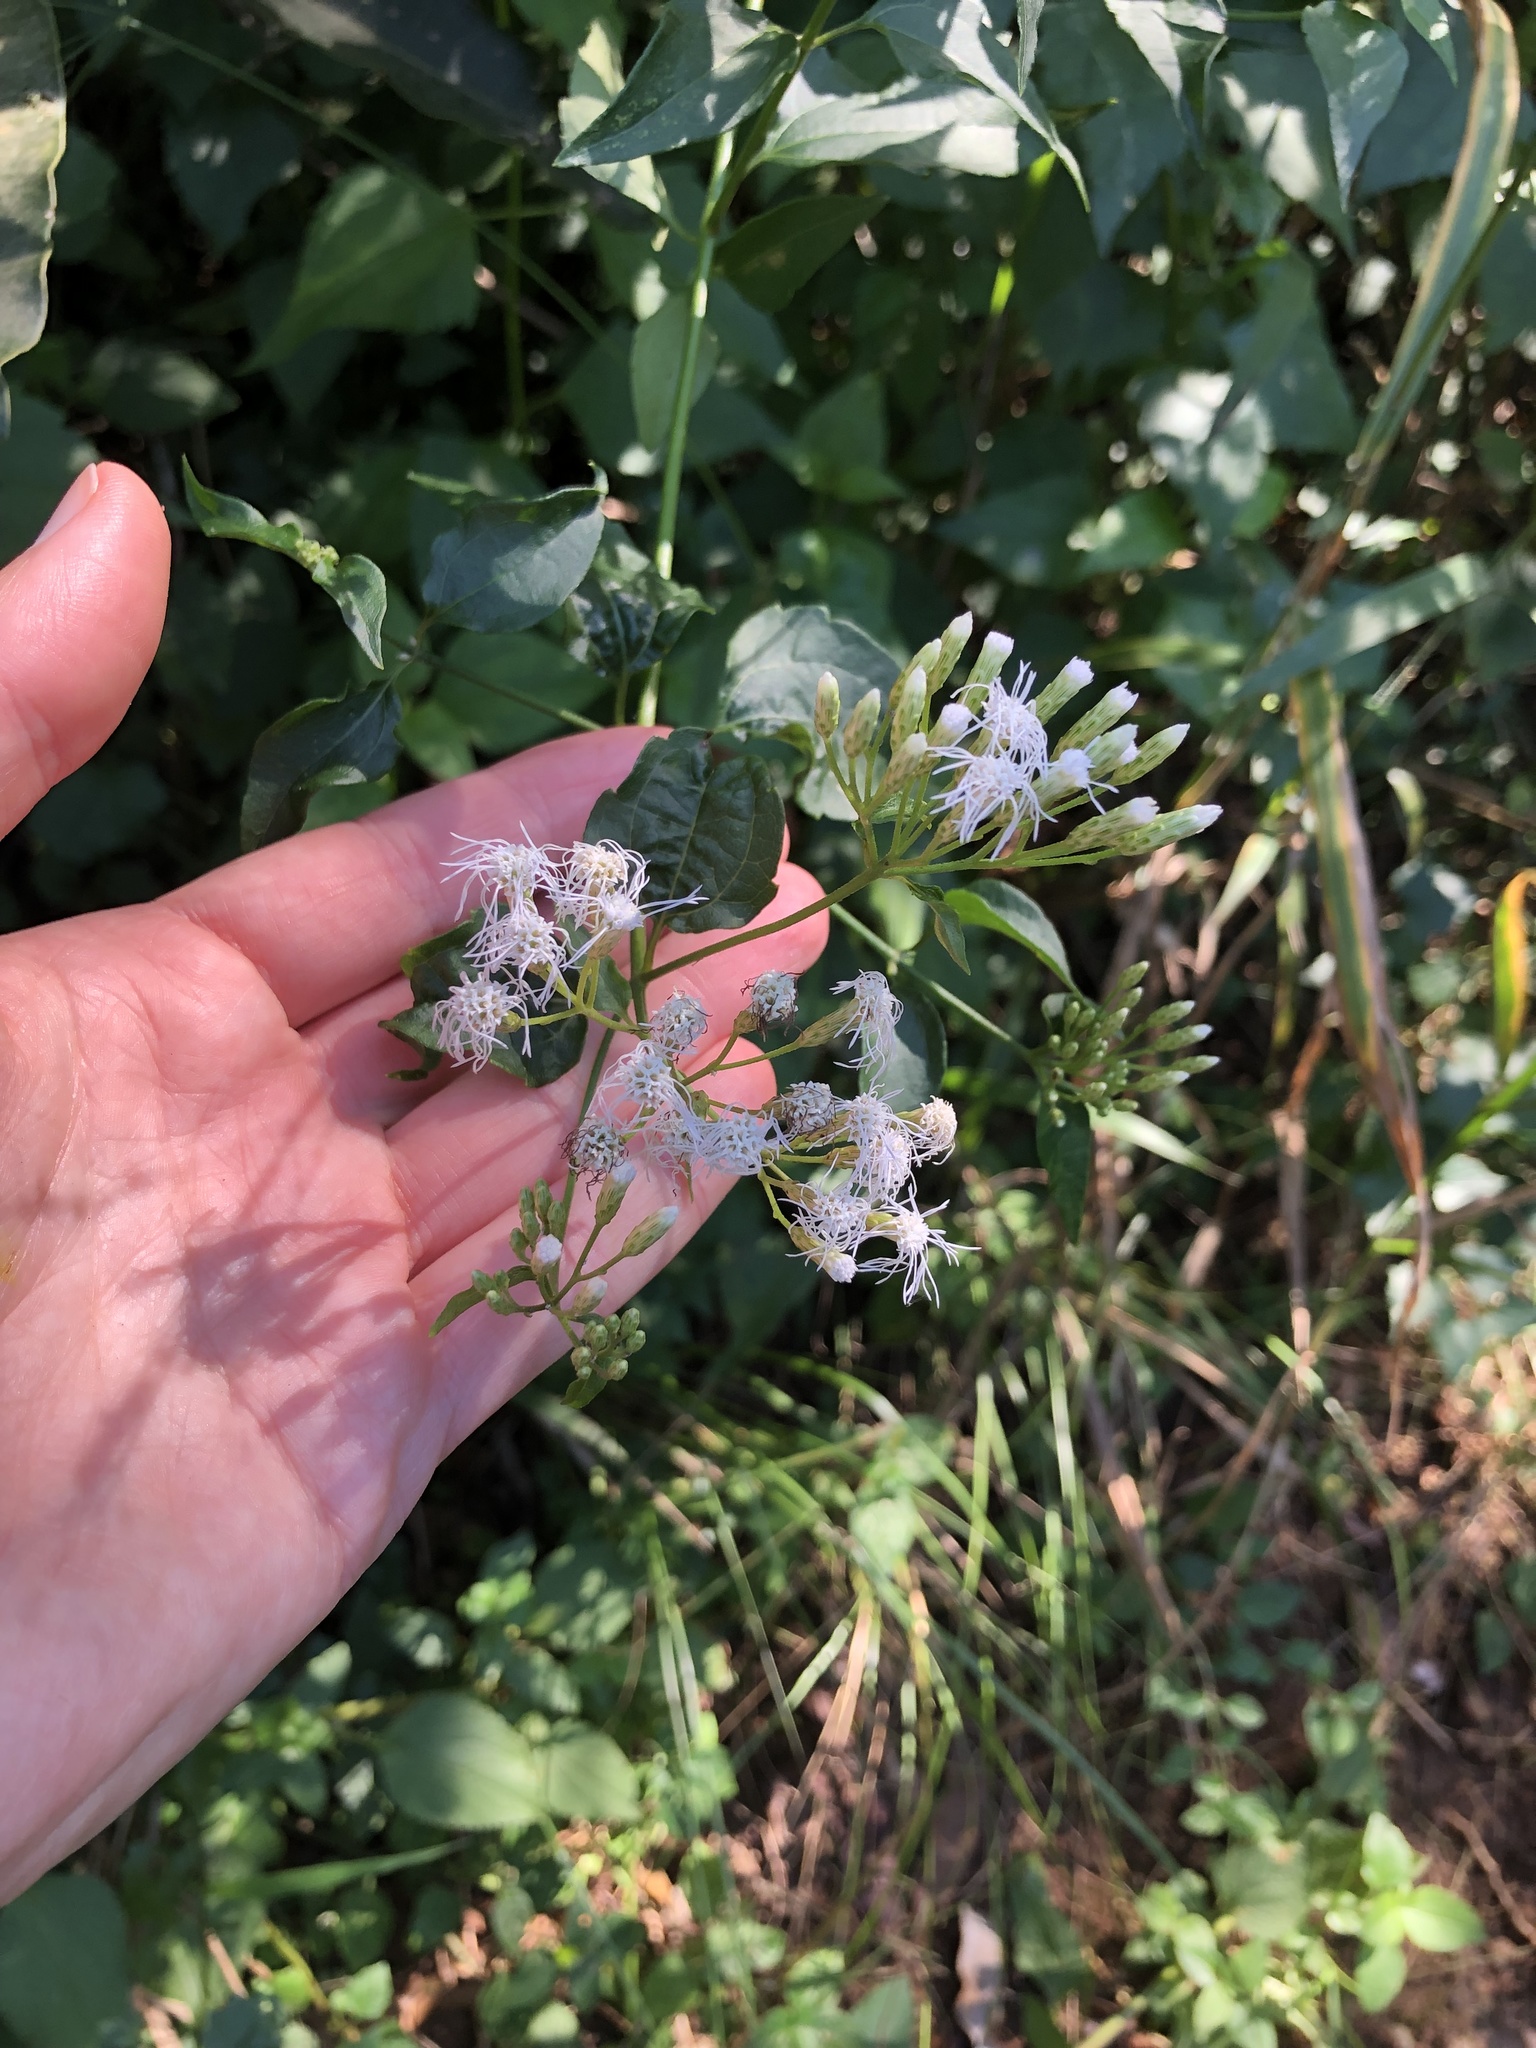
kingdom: Plantae
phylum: Tracheophyta
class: Magnoliopsida
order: Asterales
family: Asteraceae
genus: Chromolaena
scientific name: Chromolaena odorata
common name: Siamweed
